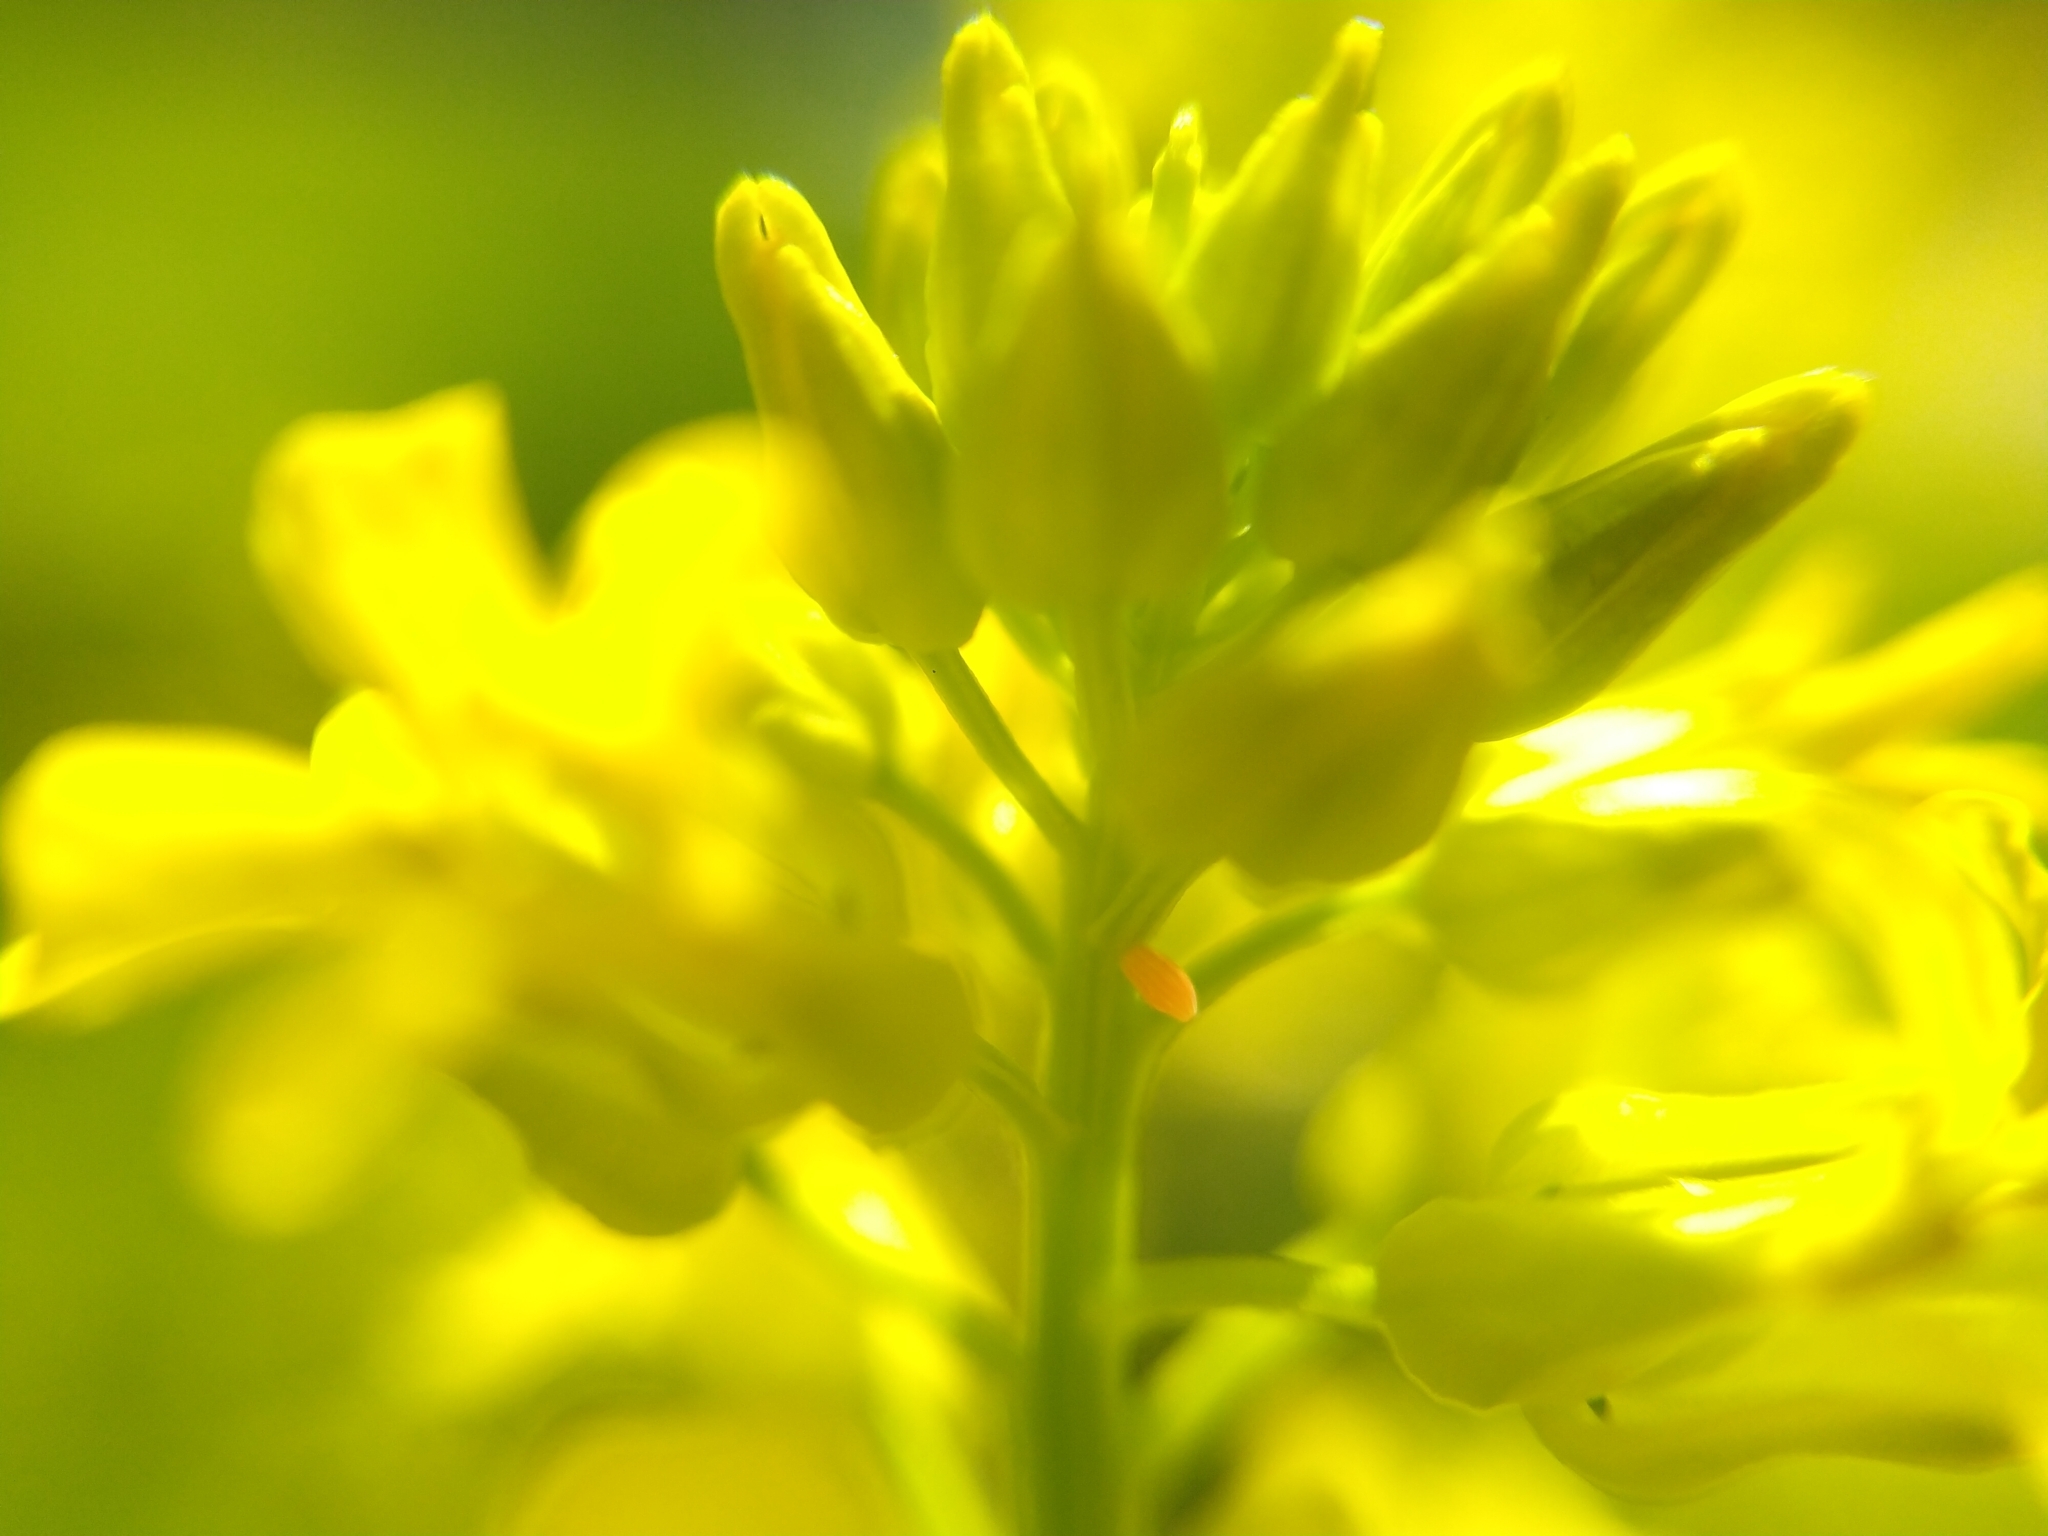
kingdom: Animalia
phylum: Arthropoda
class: Insecta
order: Lepidoptera
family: Pieridae
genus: Anthocharis
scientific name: Anthocharis cardamines
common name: Orange-tip
